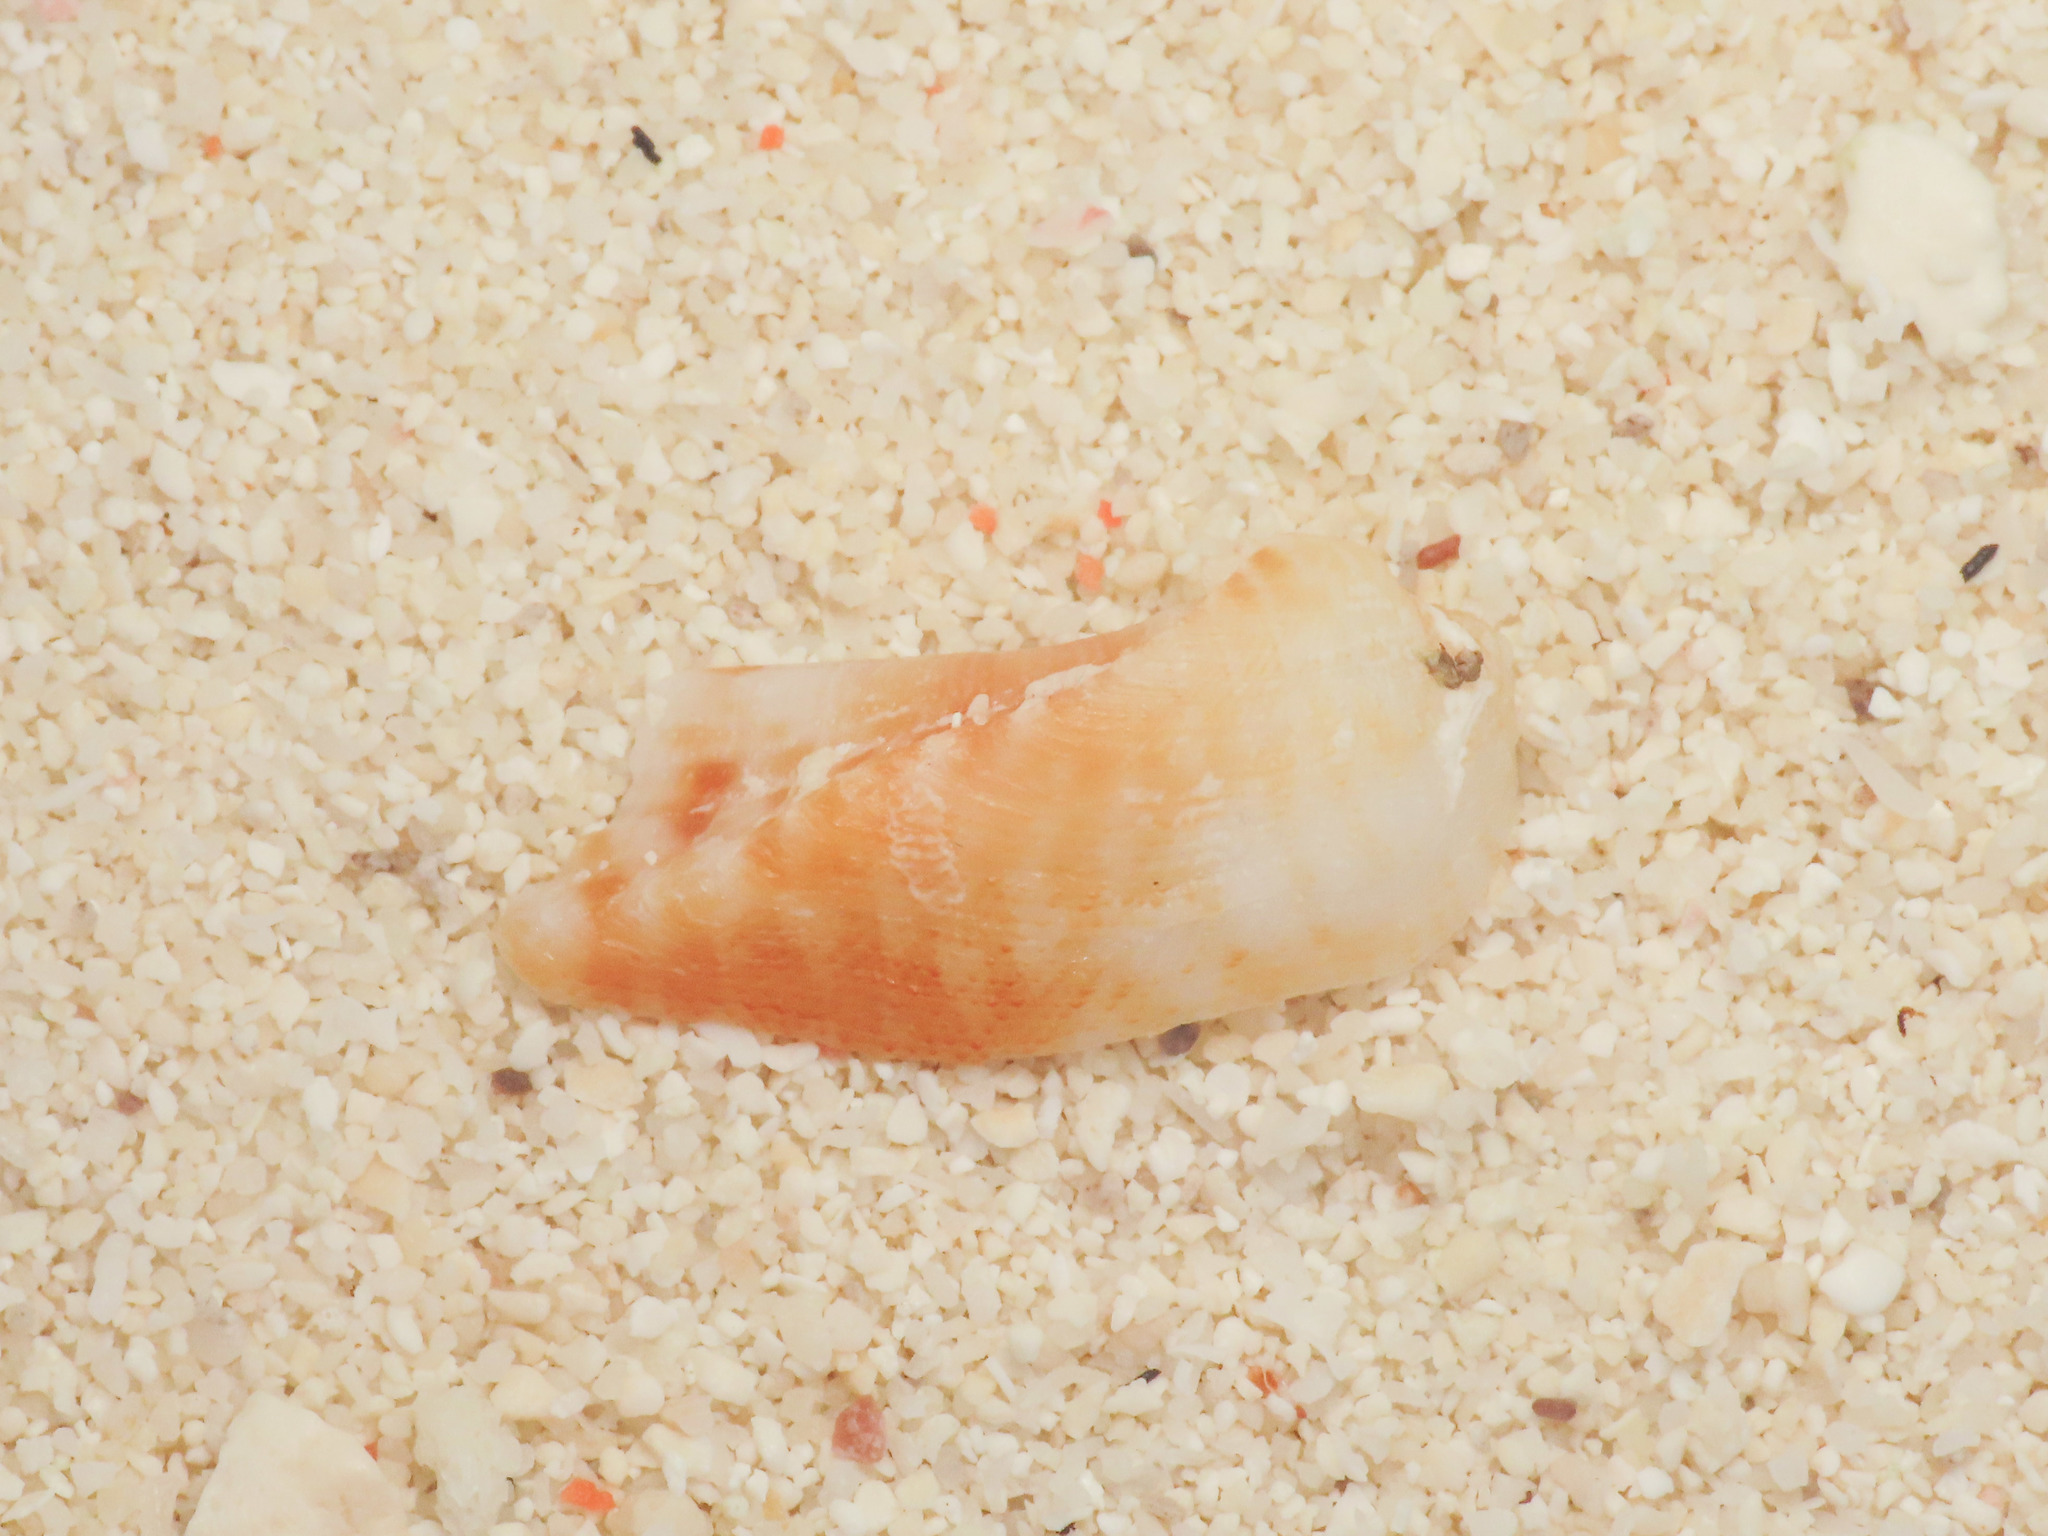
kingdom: Animalia
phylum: Mollusca
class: Bivalvia
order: Arcida
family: Arcidae
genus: Lamarcka
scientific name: Lamarcka ventricosa
